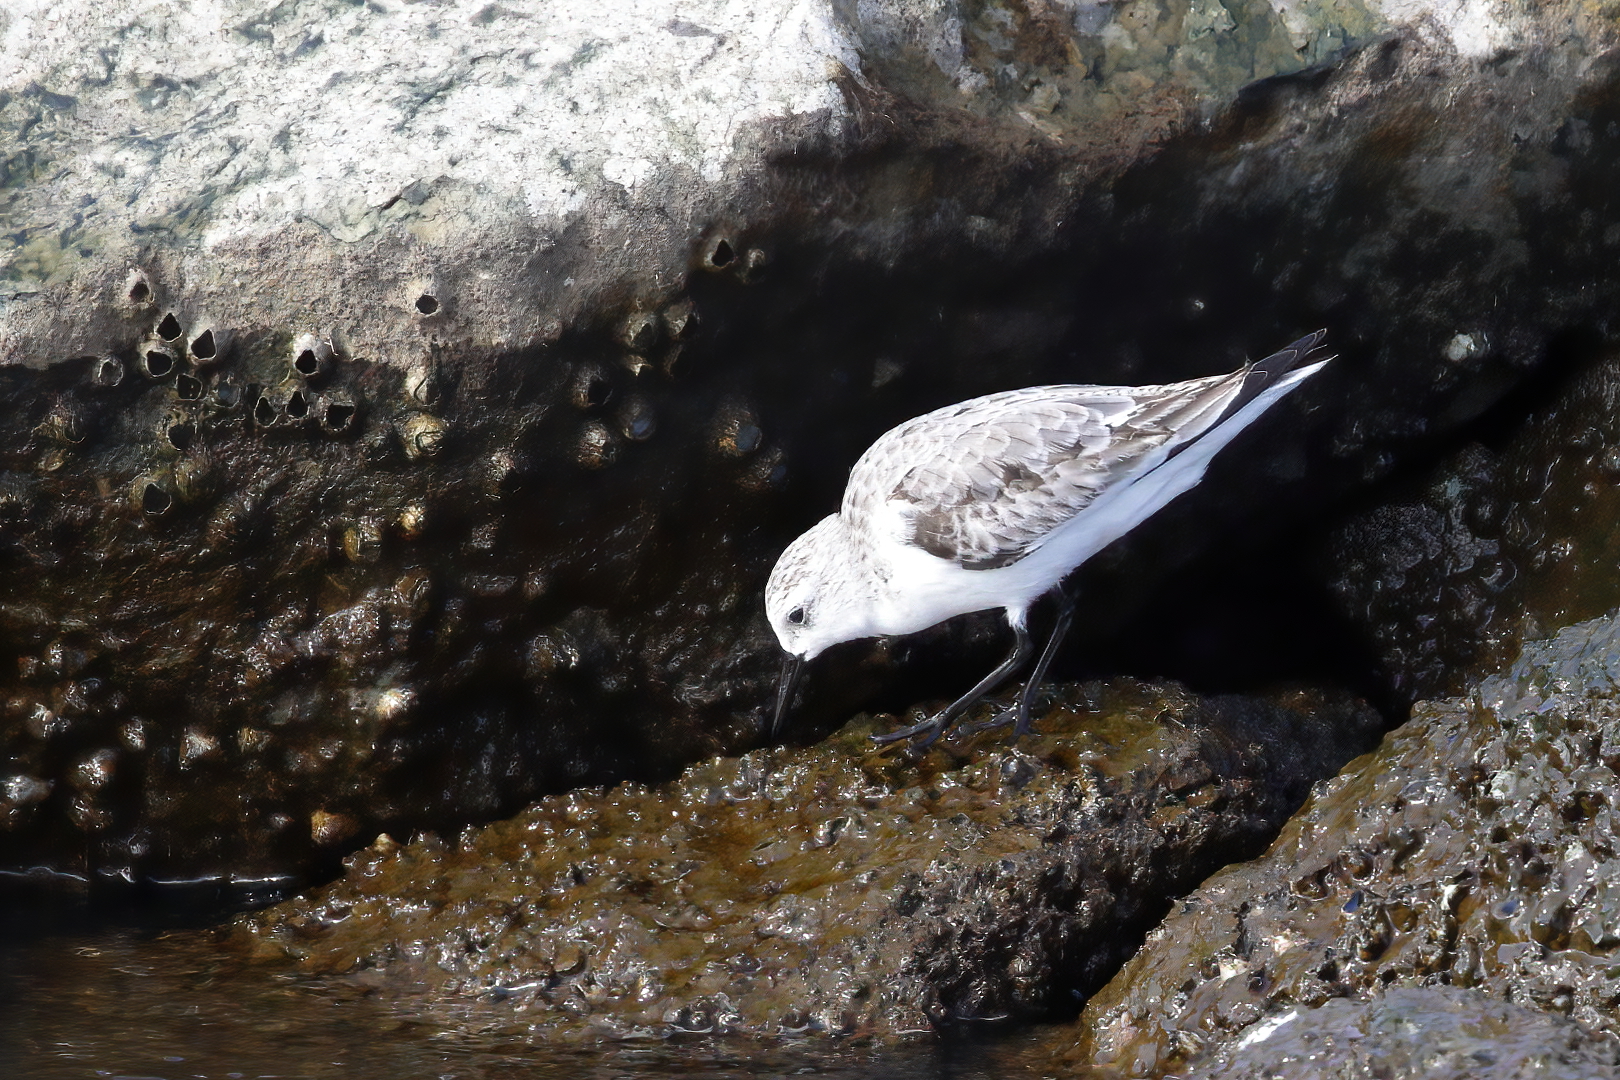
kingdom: Animalia
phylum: Chordata
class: Aves
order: Charadriiformes
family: Scolopacidae
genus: Calidris
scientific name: Calidris alba
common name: Sanderling
